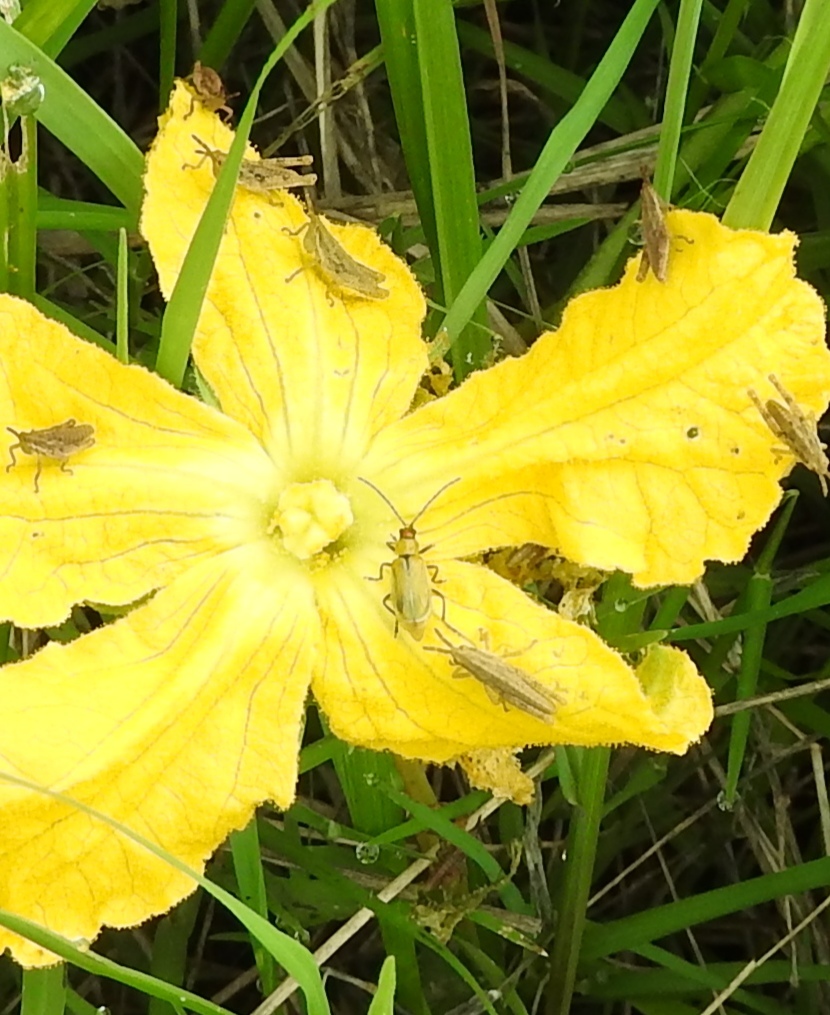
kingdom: Plantae
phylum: Tracheophyta
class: Magnoliopsida
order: Cucurbitales
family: Cucurbitaceae
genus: Apodanthera
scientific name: Apodanthera aspera
